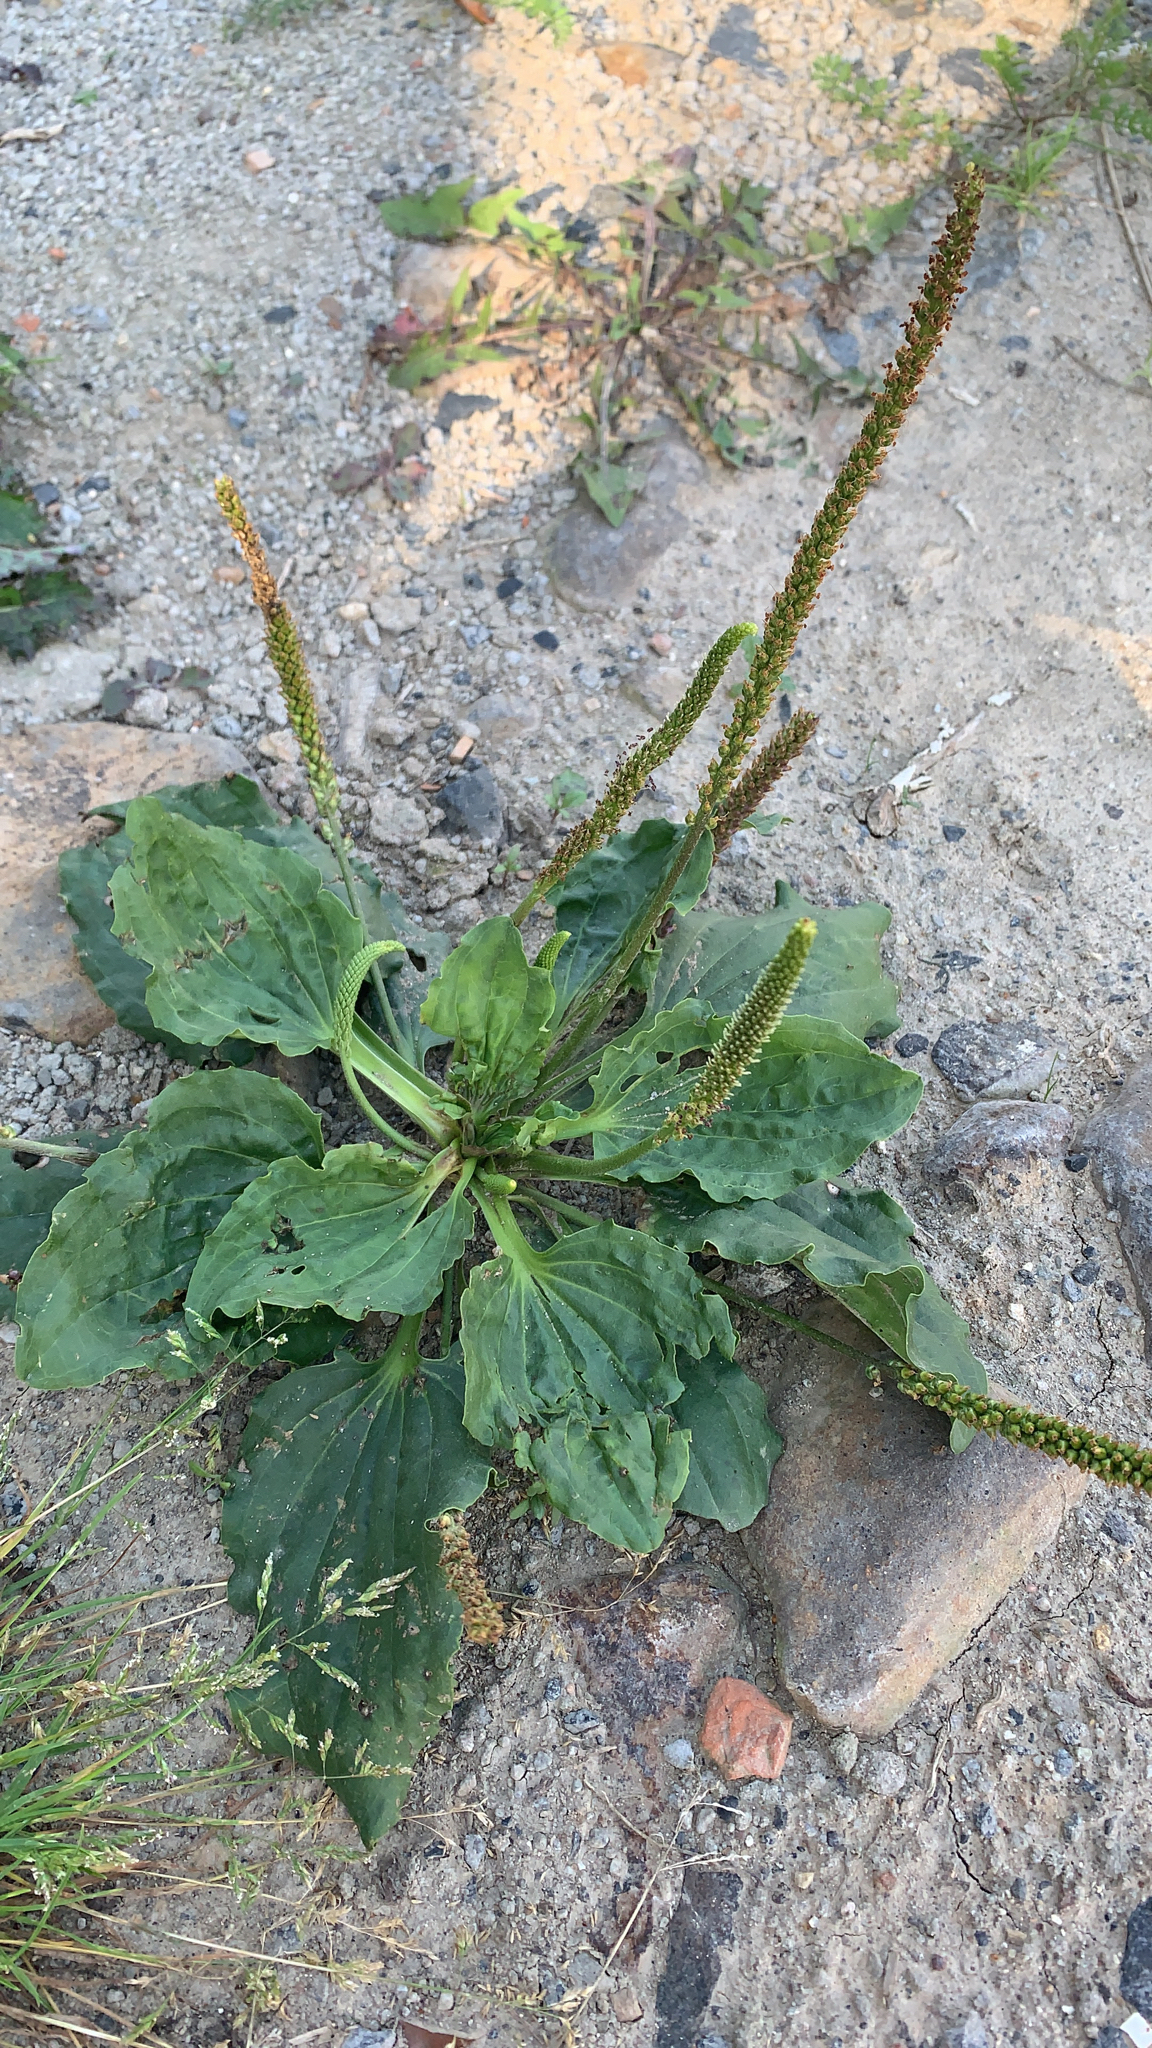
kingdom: Plantae
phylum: Tracheophyta
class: Magnoliopsida
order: Lamiales
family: Plantaginaceae
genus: Plantago
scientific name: Plantago major
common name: Common plantain
